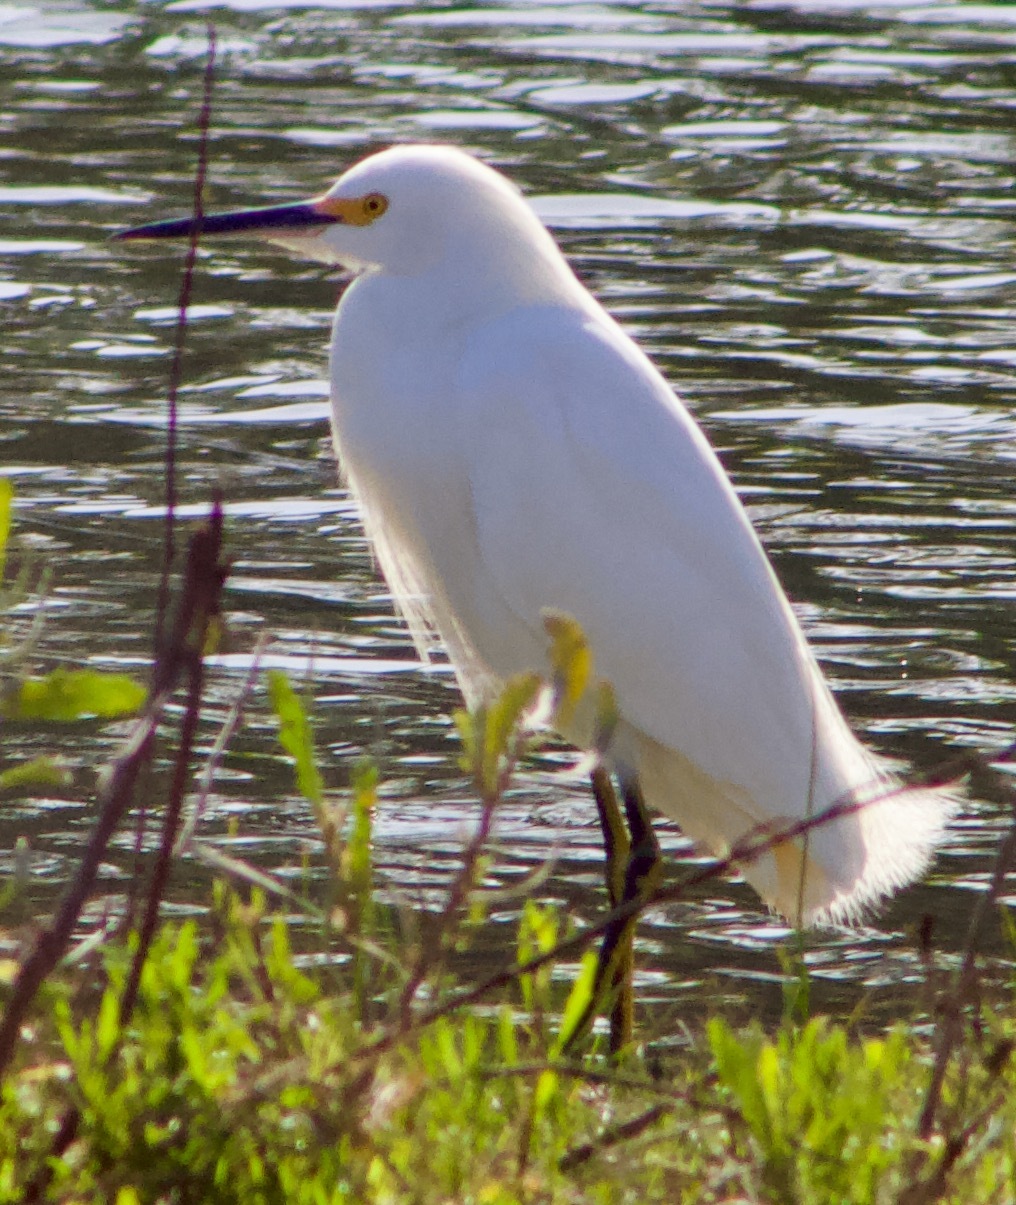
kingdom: Animalia
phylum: Chordata
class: Aves
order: Pelecaniformes
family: Ardeidae
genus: Egretta
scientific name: Egretta thula
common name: Snowy egret
